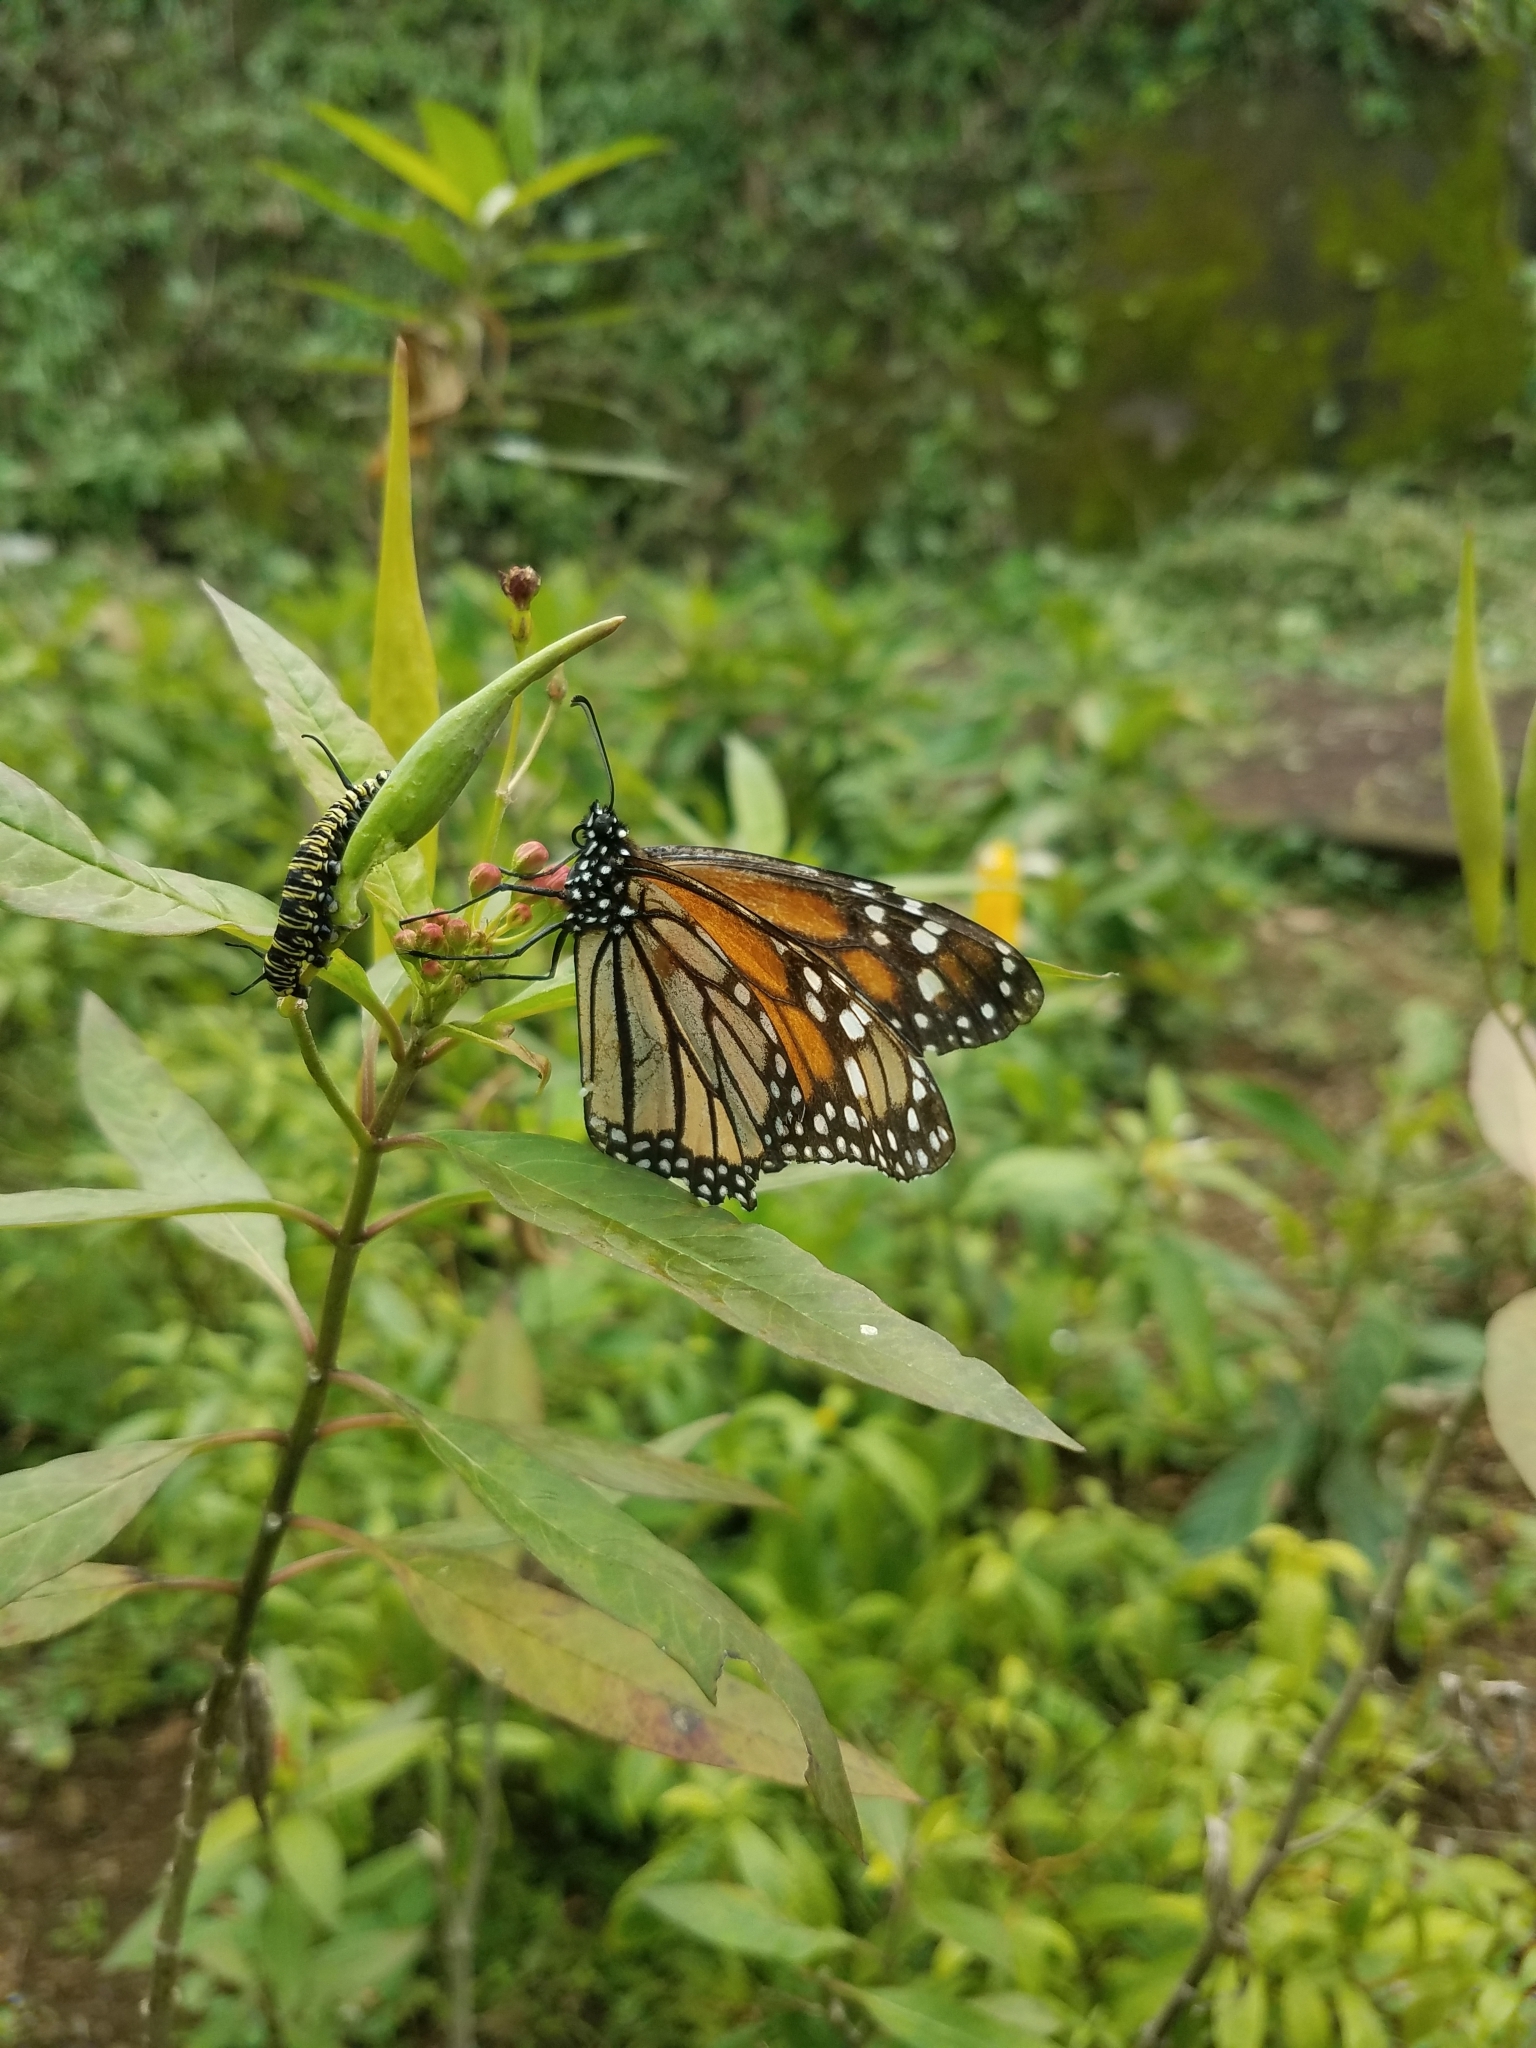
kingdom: Animalia
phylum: Arthropoda
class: Insecta
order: Lepidoptera
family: Nymphalidae
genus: Danaus
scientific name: Danaus plexippus
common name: Monarch
